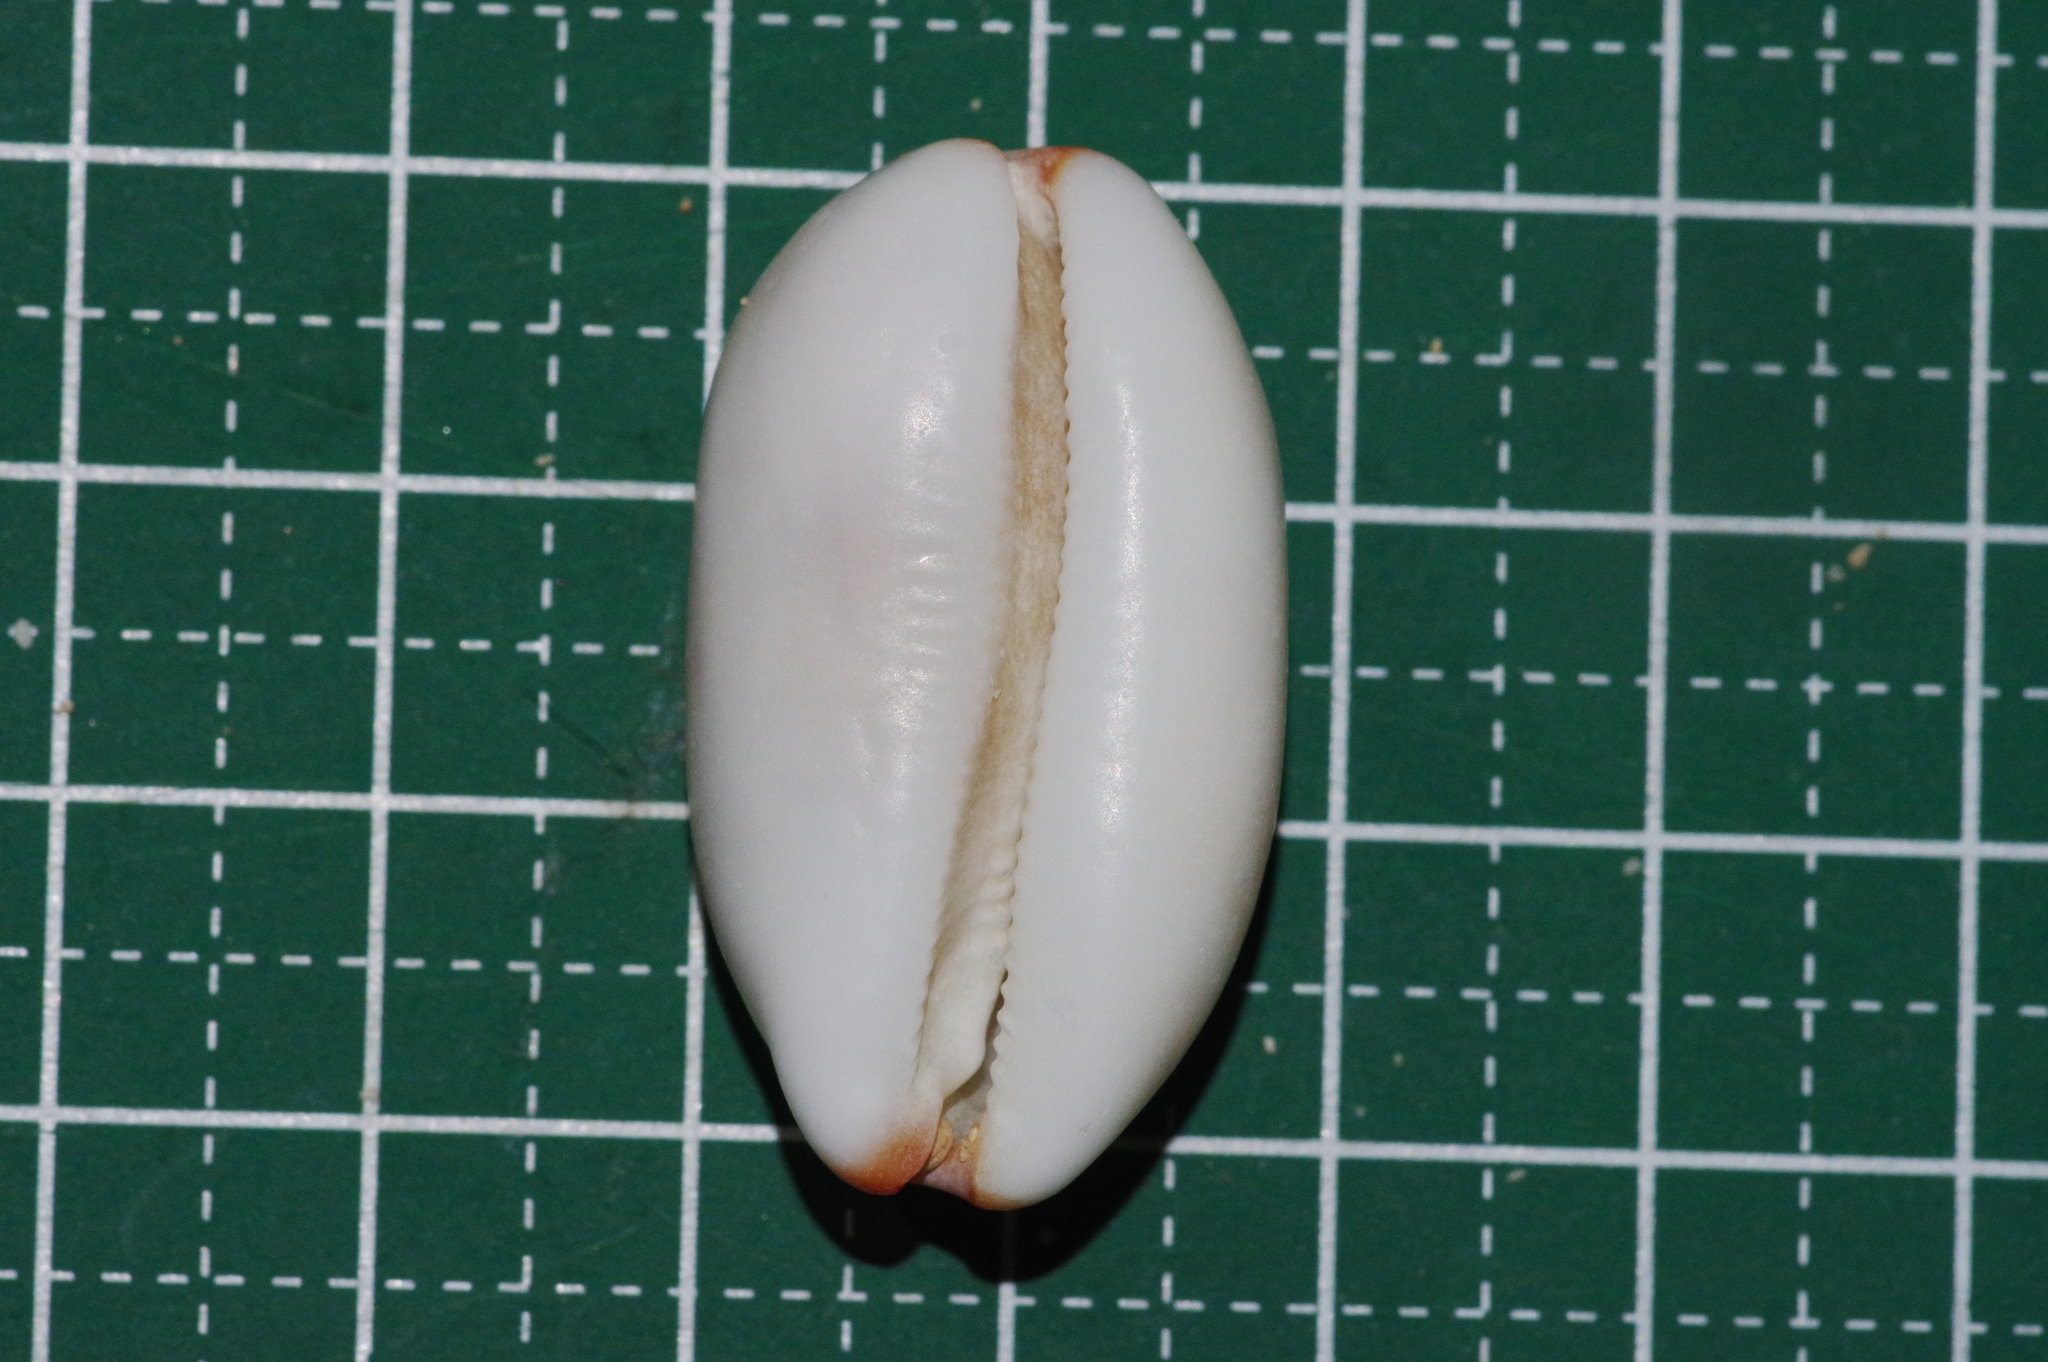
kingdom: Animalia
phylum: Mollusca
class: Gastropoda
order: Littorinimorpha
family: Cypraeidae
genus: Luria
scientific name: Luria isabella
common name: Isabell cowry
